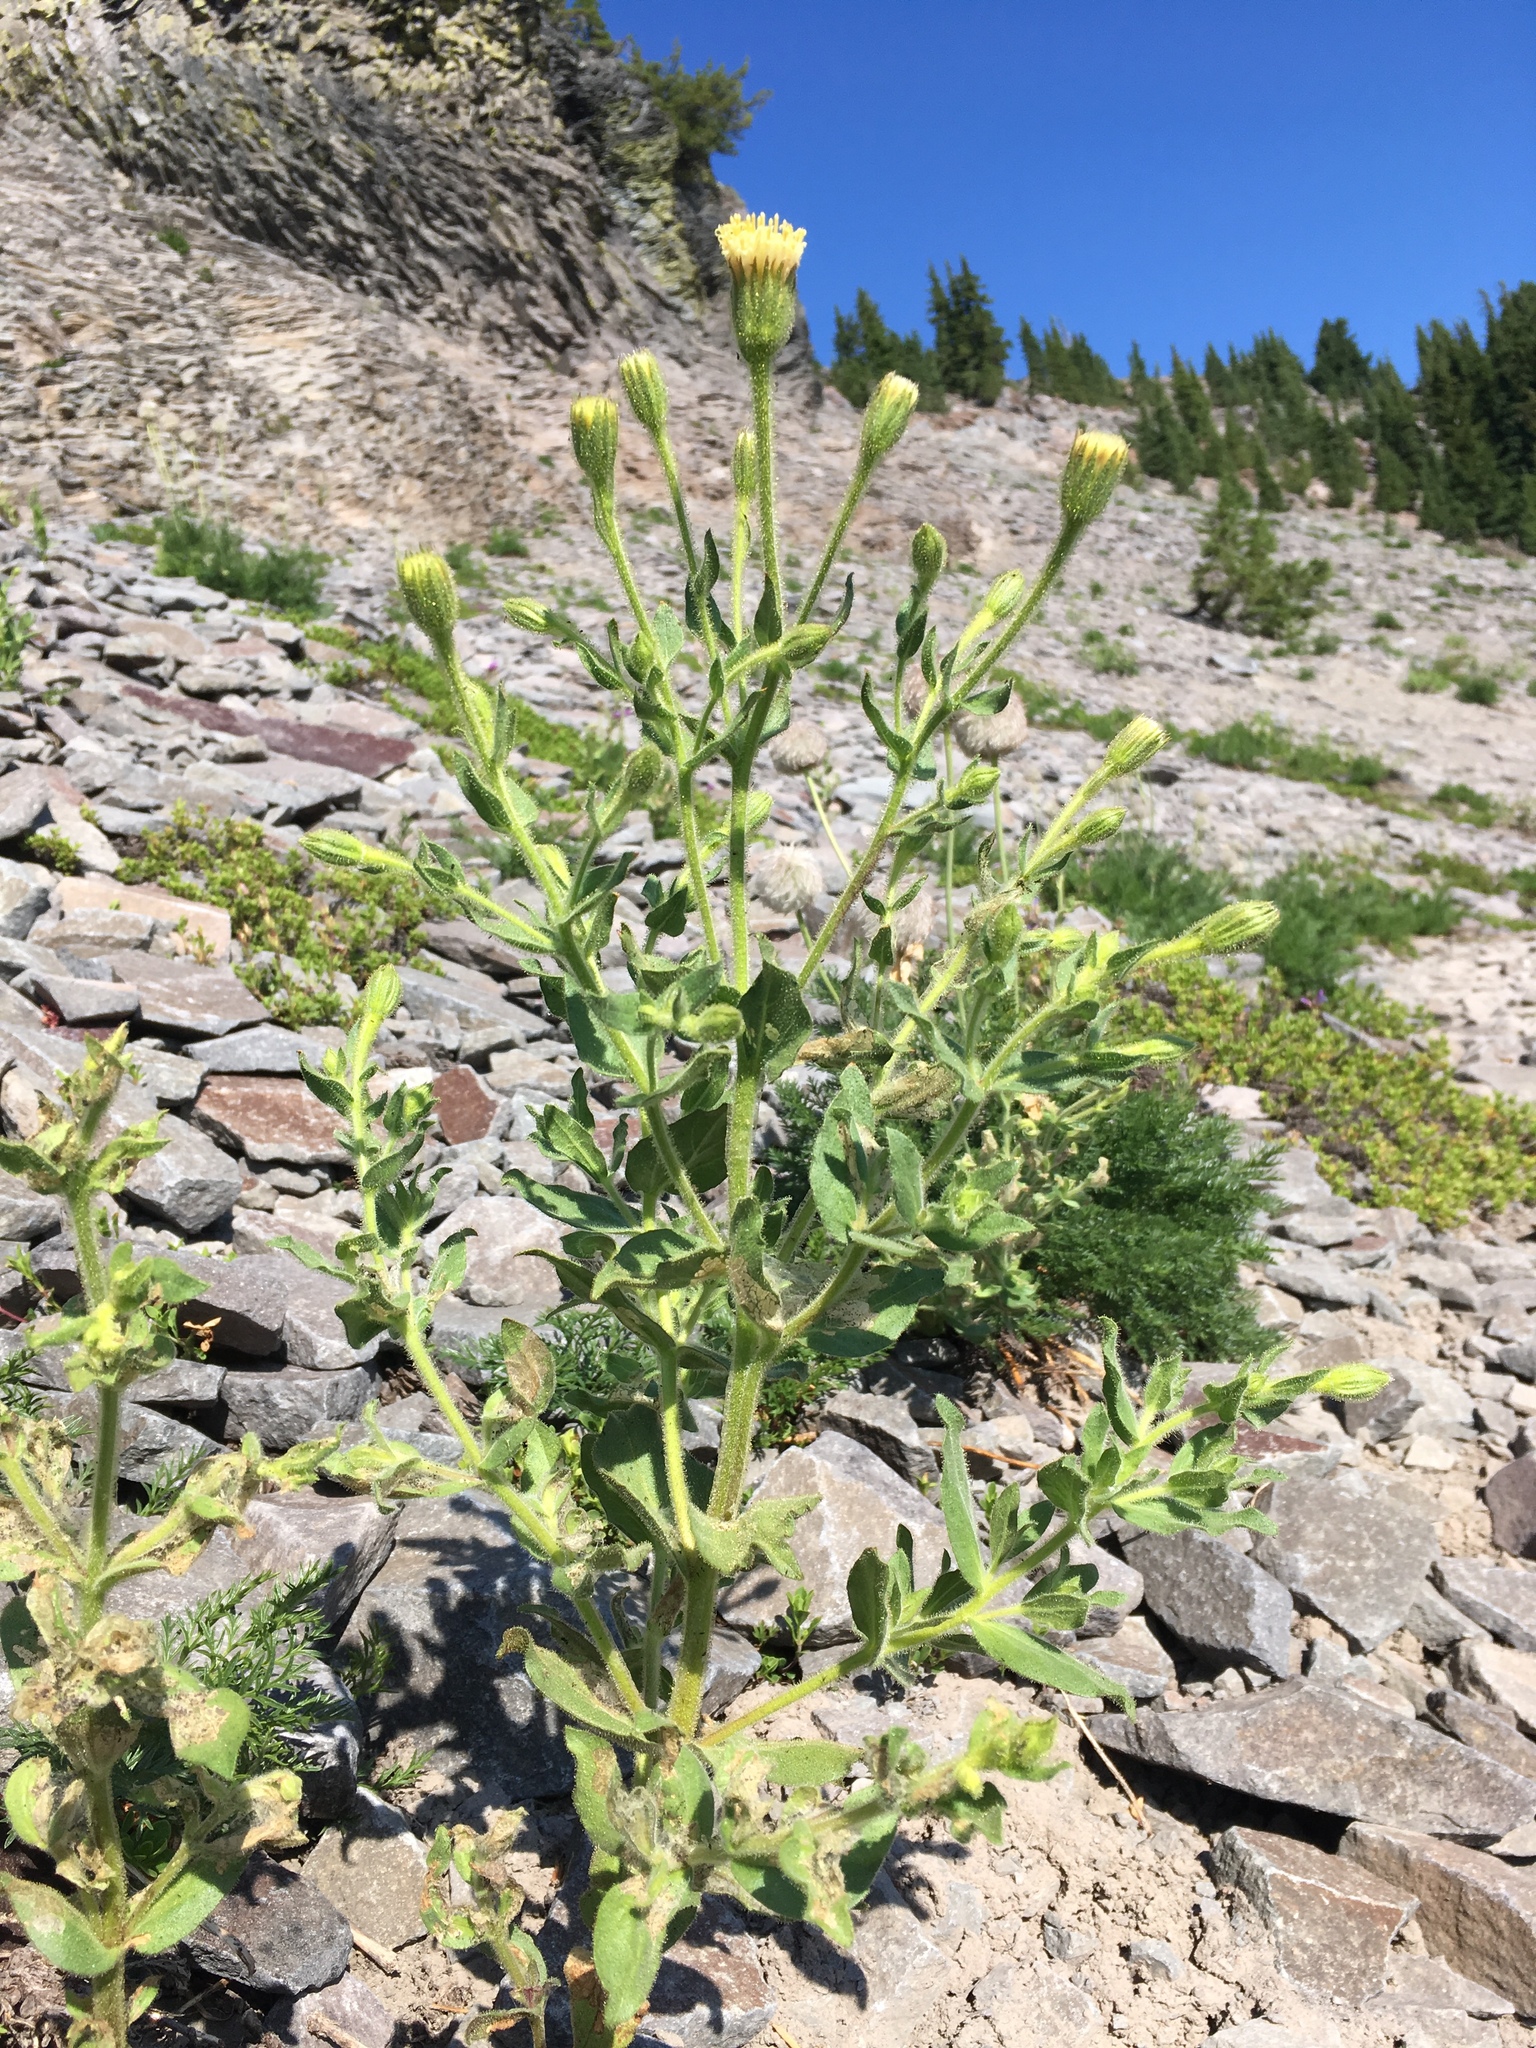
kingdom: Plantae
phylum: Tracheophyta
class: Magnoliopsida
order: Asterales
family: Asteraceae
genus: Arnica
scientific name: Arnica viscosa
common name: Mt. shasta arnica
